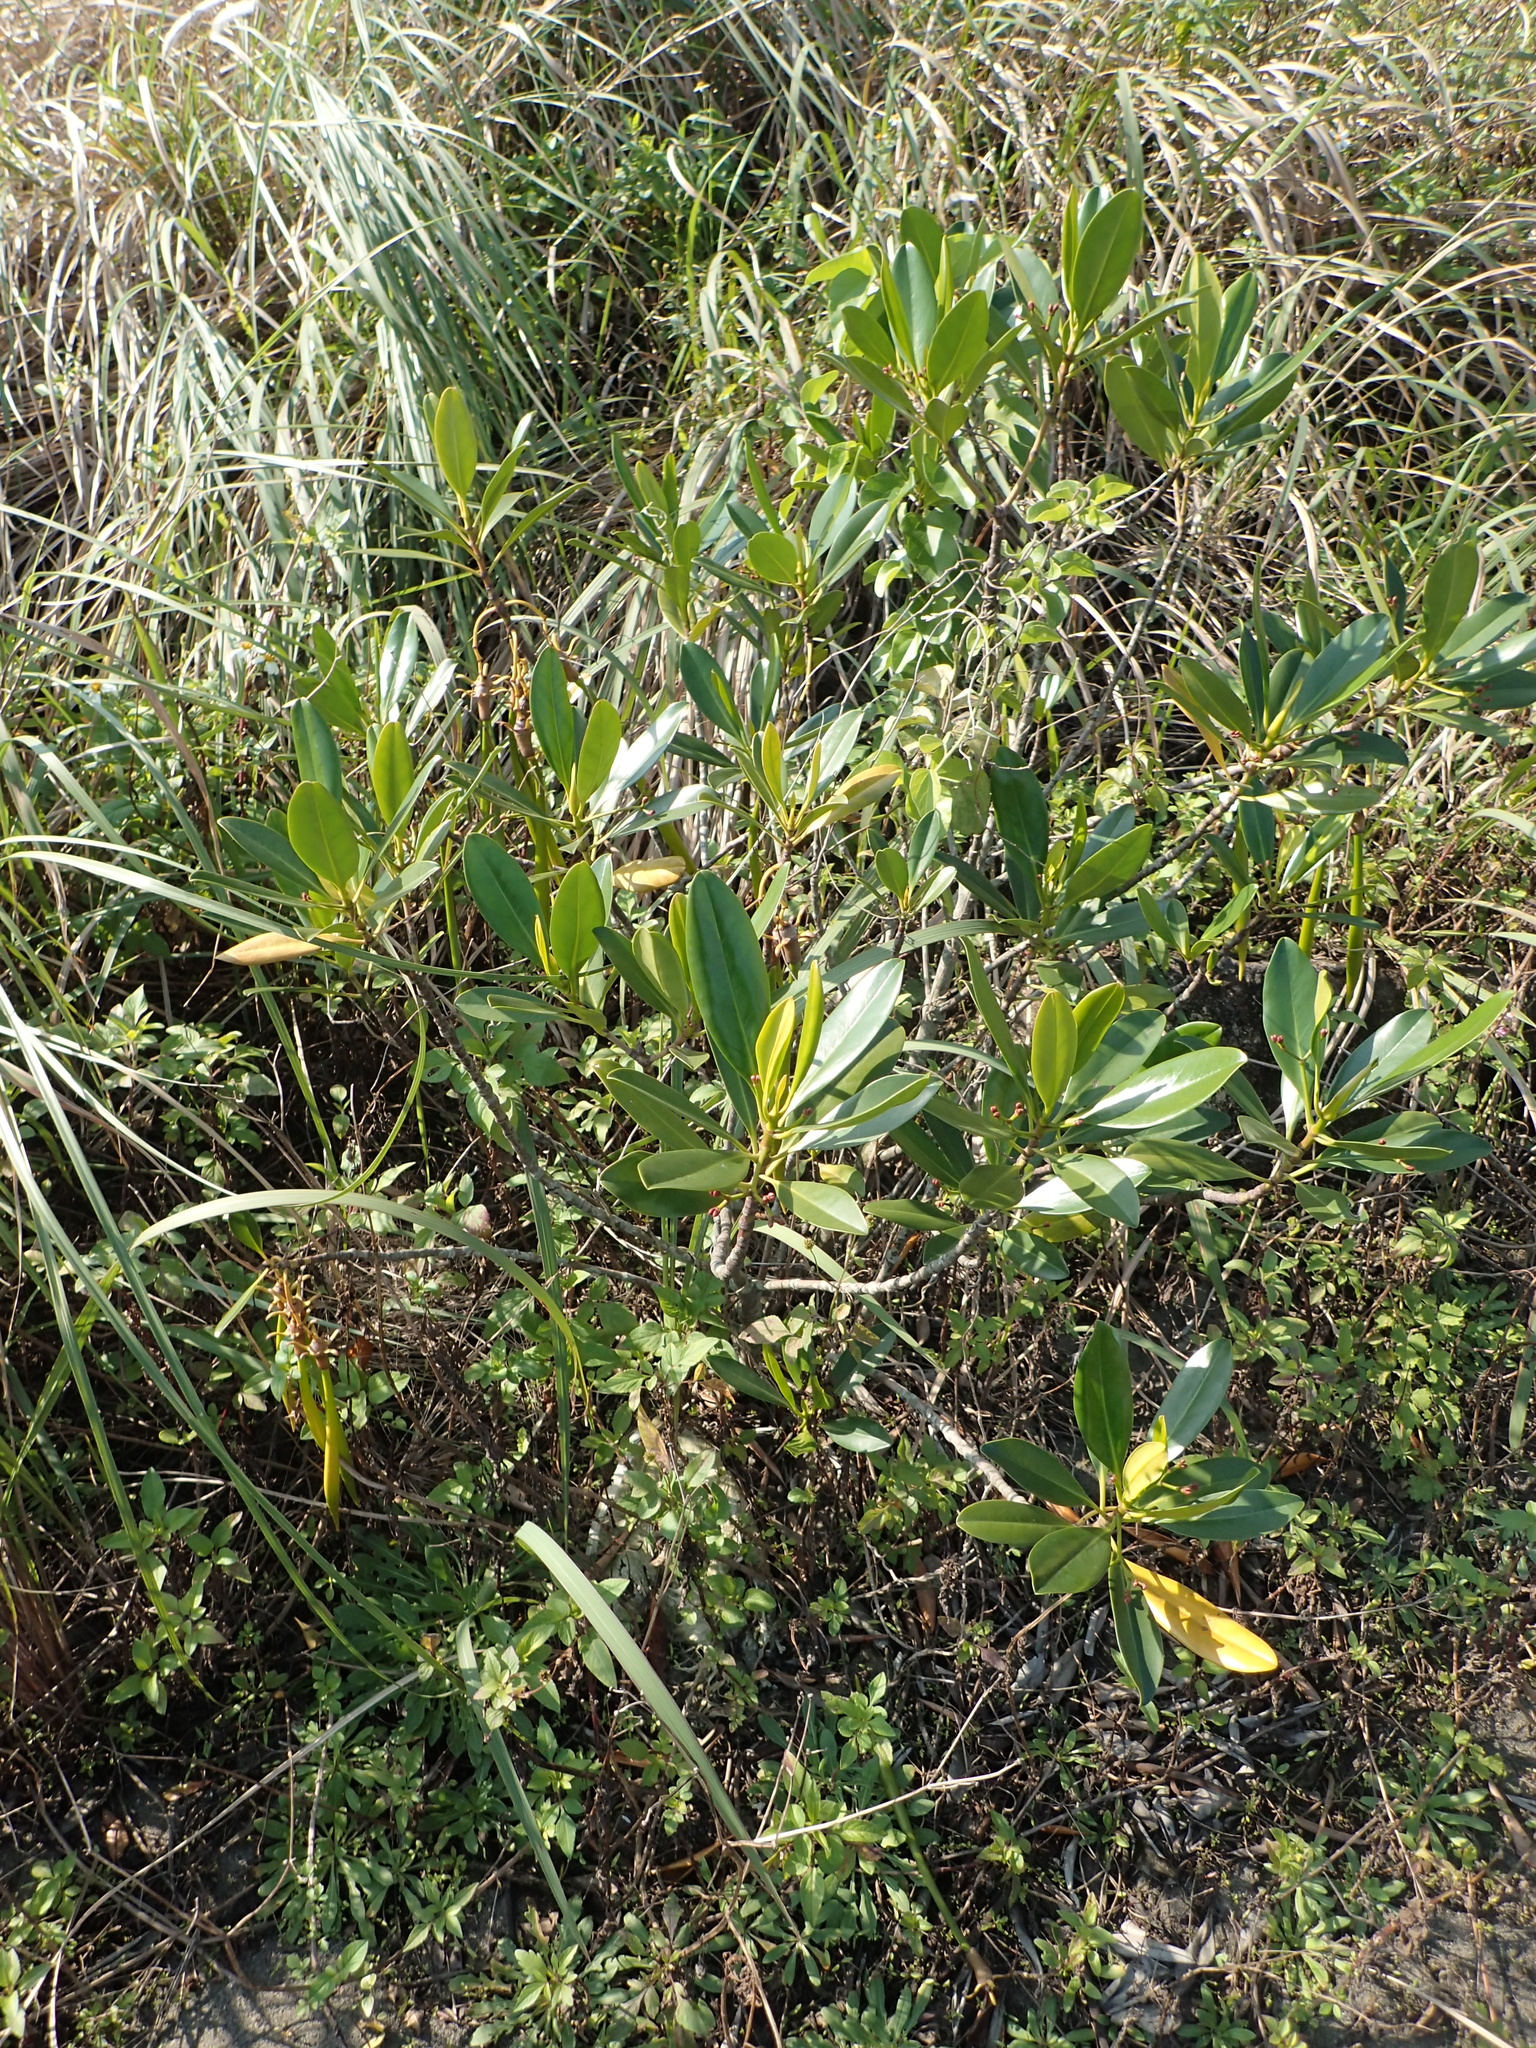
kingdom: Plantae
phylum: Tracheophyta
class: Magnoliopsida
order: Malpighiales
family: Rhizophoraceae
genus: Kandelia
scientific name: Kandelia obovata
